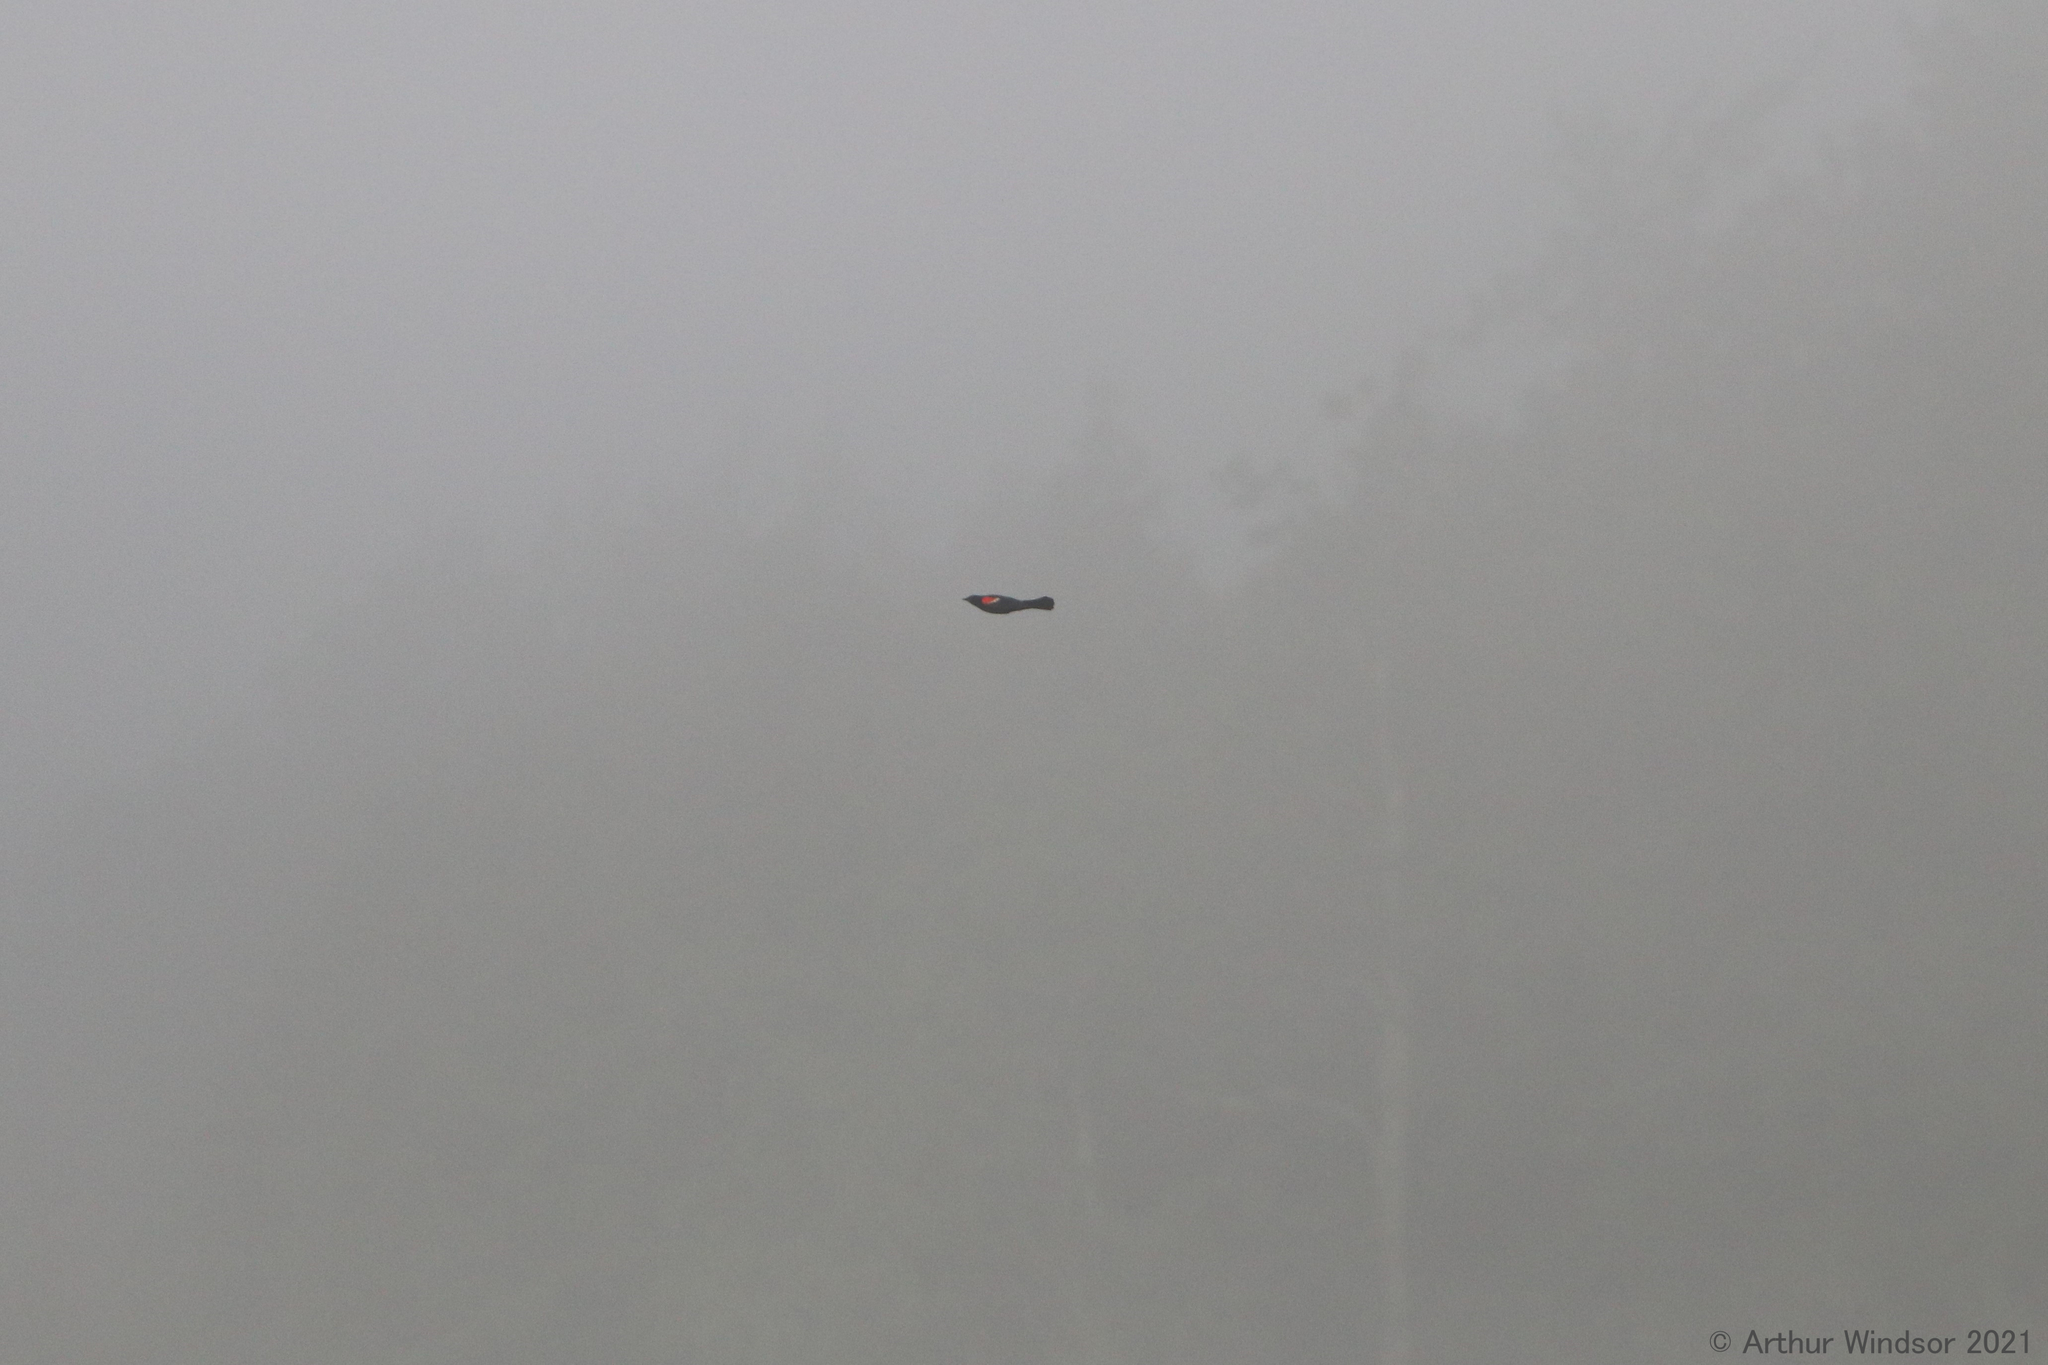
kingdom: Animalia
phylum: Chordata
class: Aves
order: Passeriformes
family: Icteridae
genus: Agelaius
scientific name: Agelaius phoeniceus
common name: Red-winged blackbird
